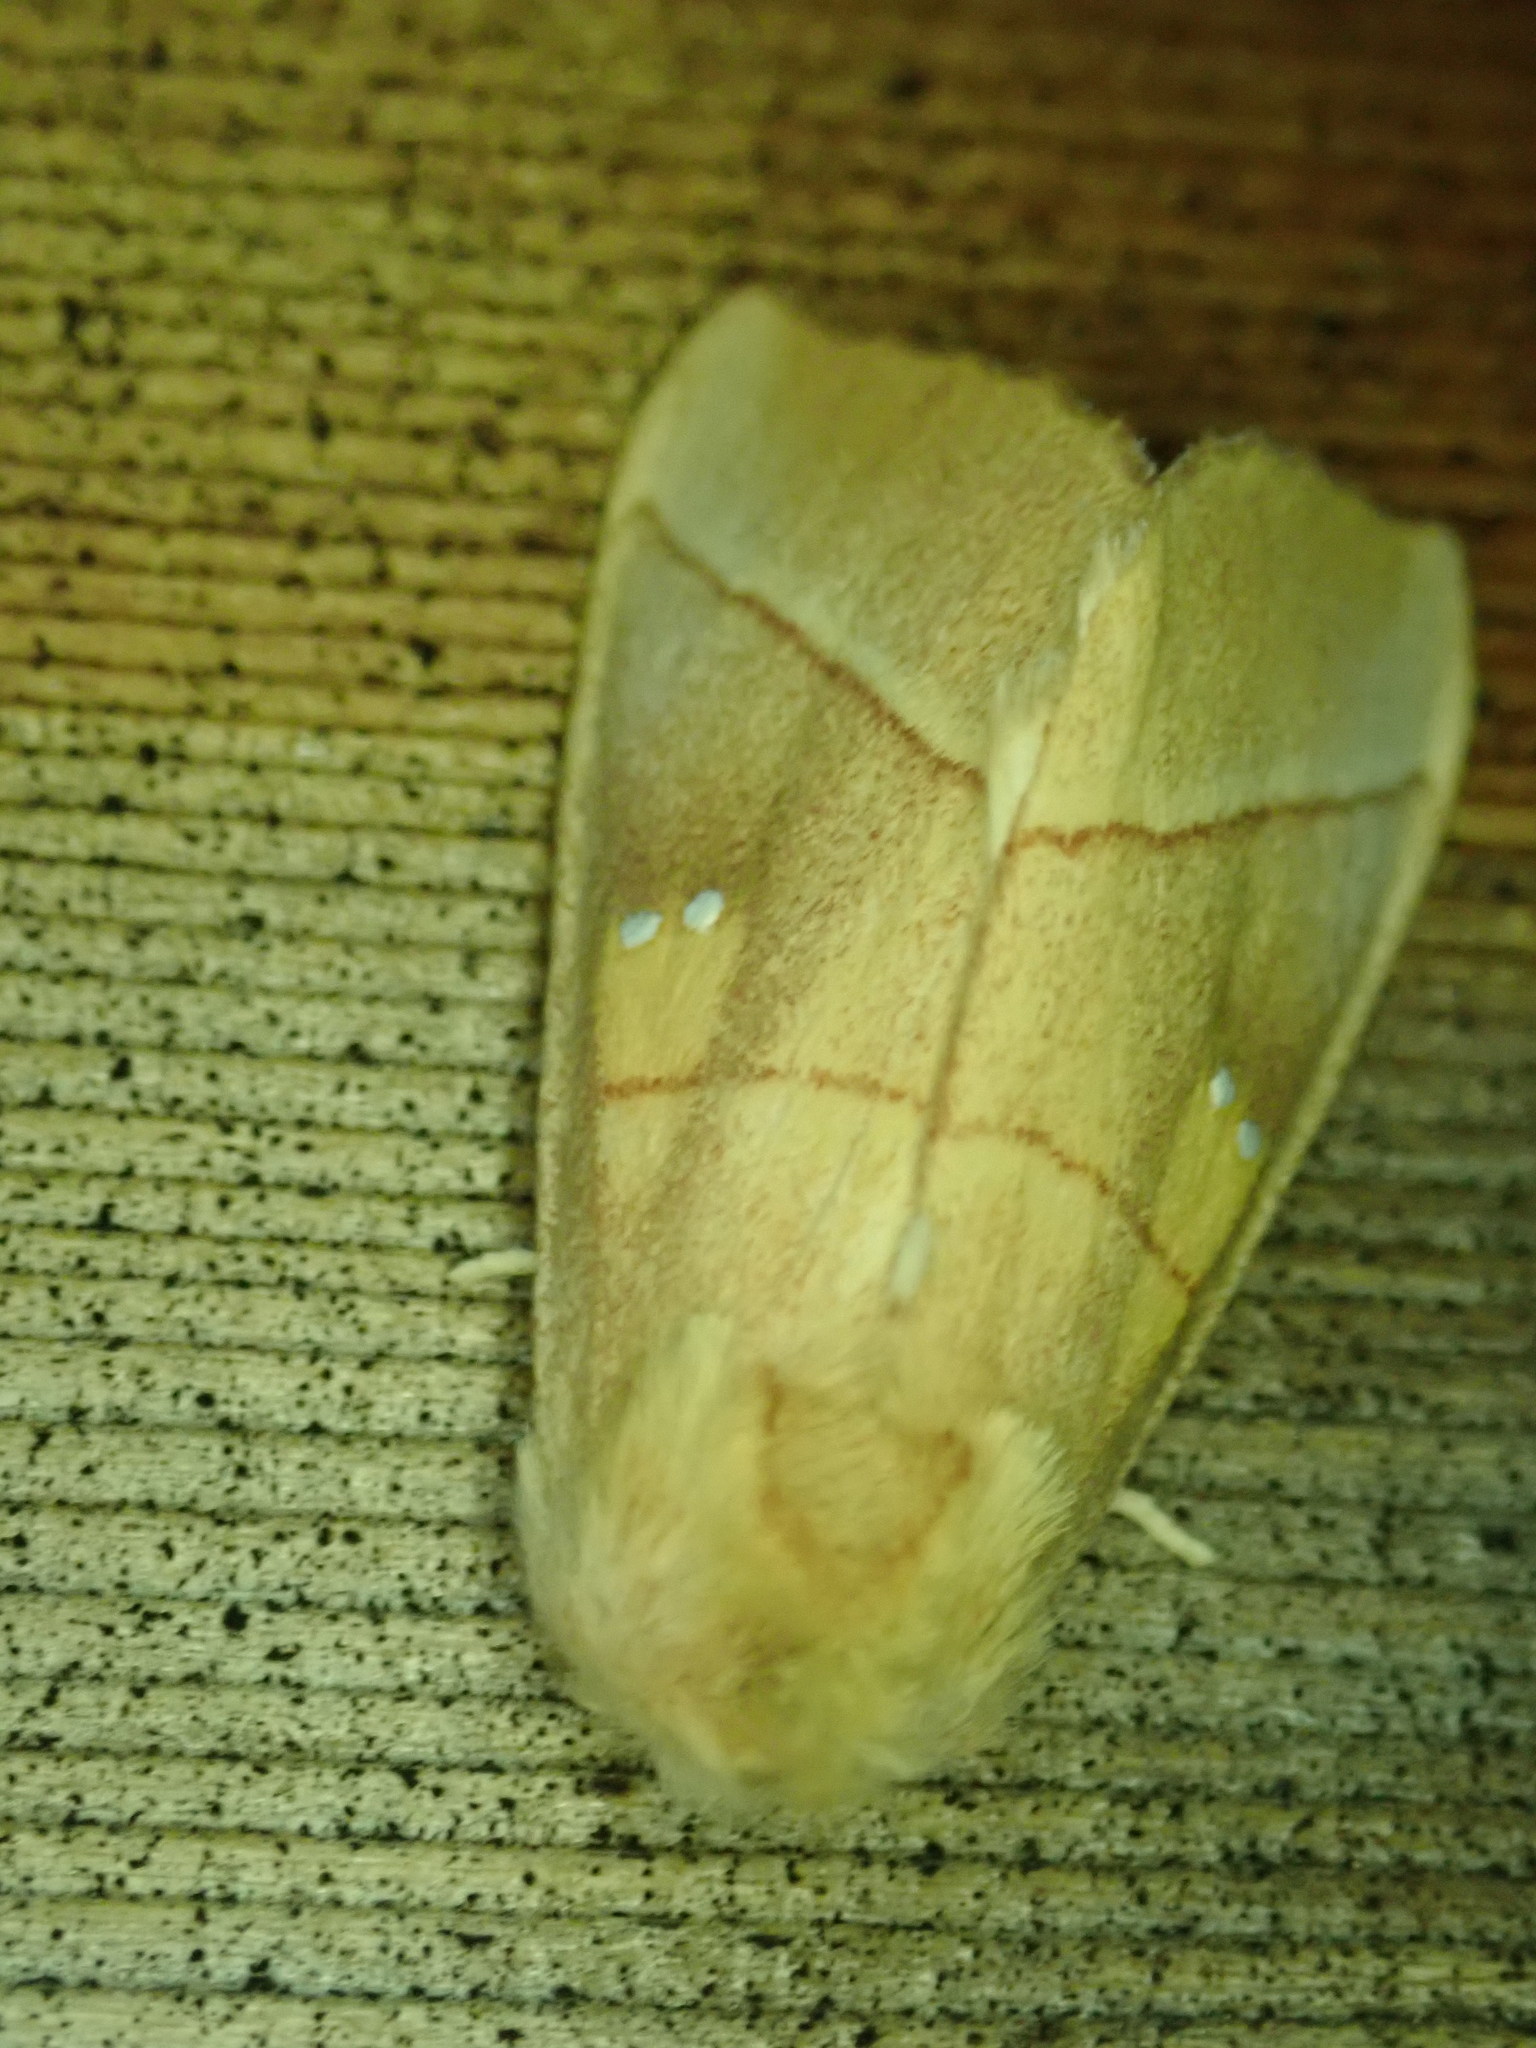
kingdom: Animalia
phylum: Arthropoda
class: Insecta
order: Lepidoptera
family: Notodontidae
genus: Nadata
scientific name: Nadata gibbosa
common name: White-dotted prominent
